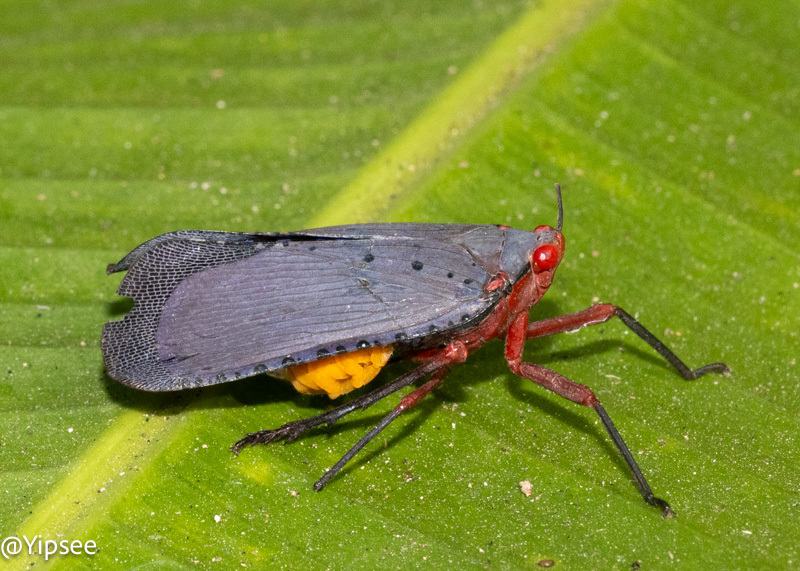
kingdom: Animalia
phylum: Arthropoda
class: Insecta
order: Hemiptera
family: Fulgoridae
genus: Kalidasa
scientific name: Kalidasa nigromaculata
